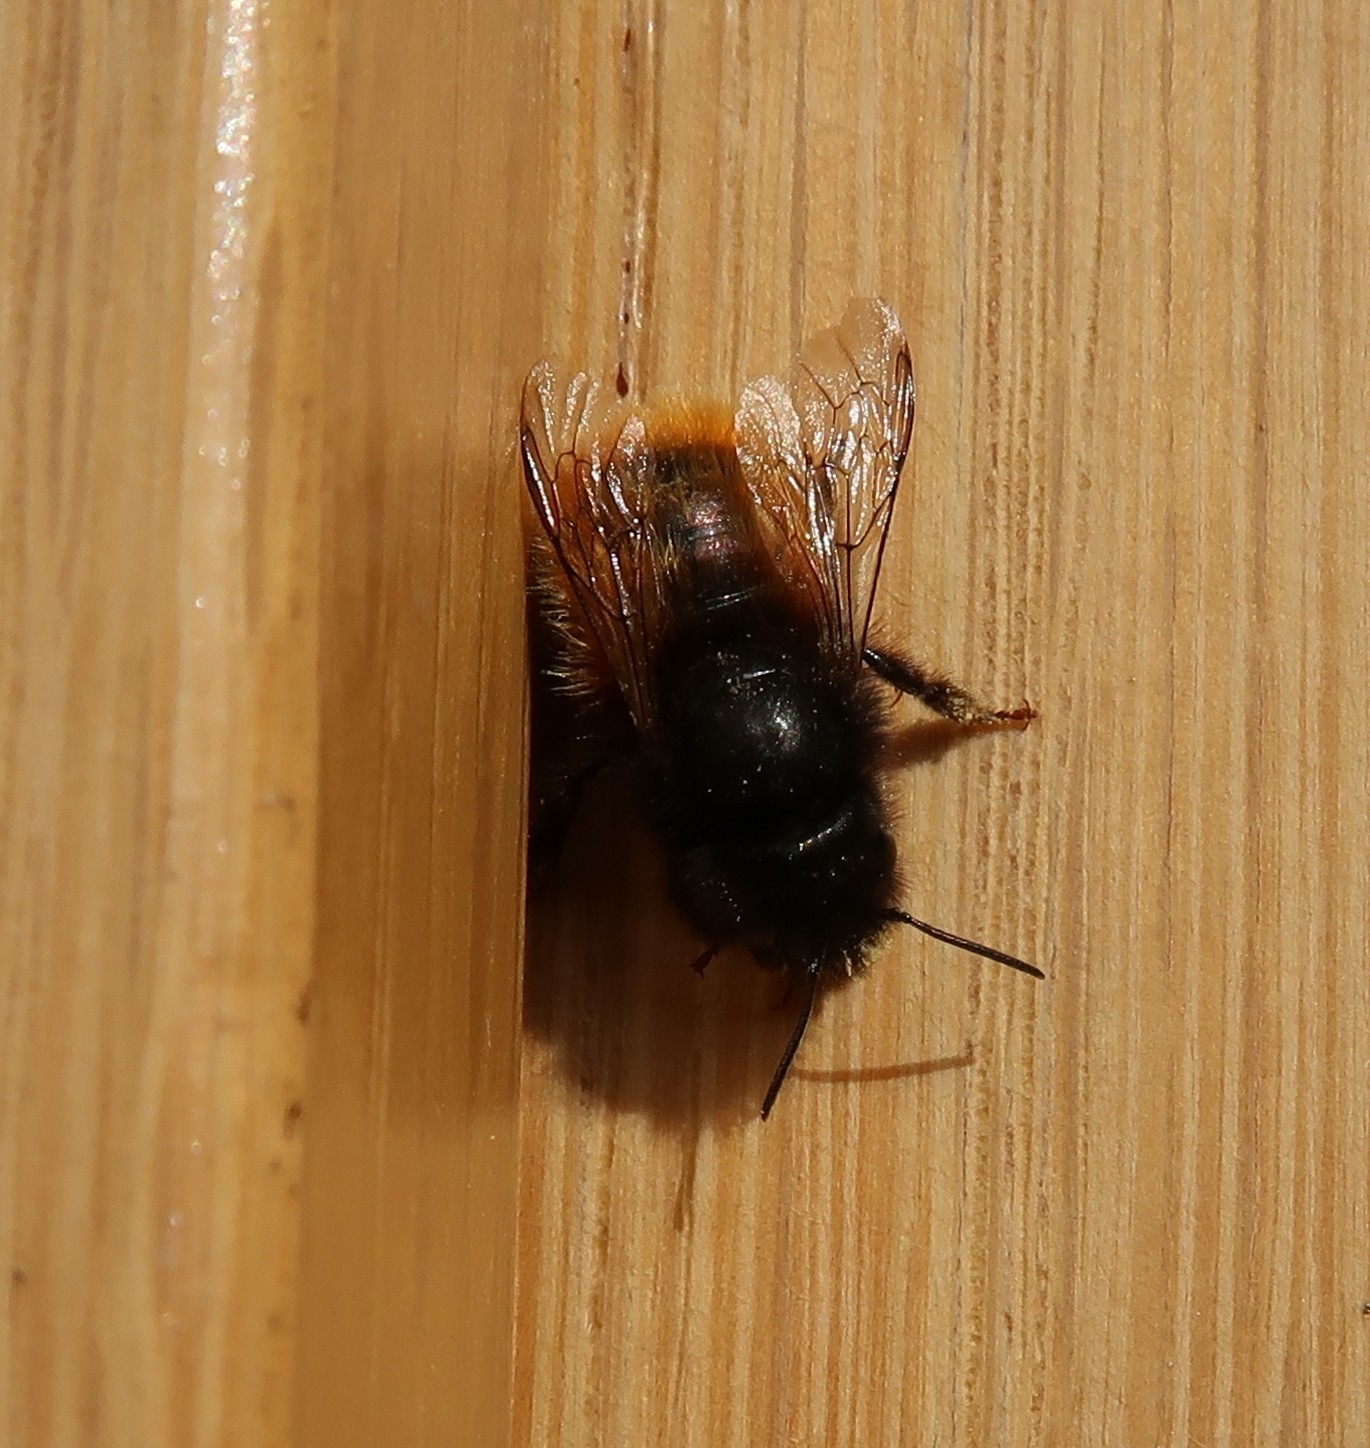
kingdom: Animalia
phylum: Arthropoda
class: Insecta
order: Hymenoptera
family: Megachilidae
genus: Osmia
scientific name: Osmia cornuta
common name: Mason bee
